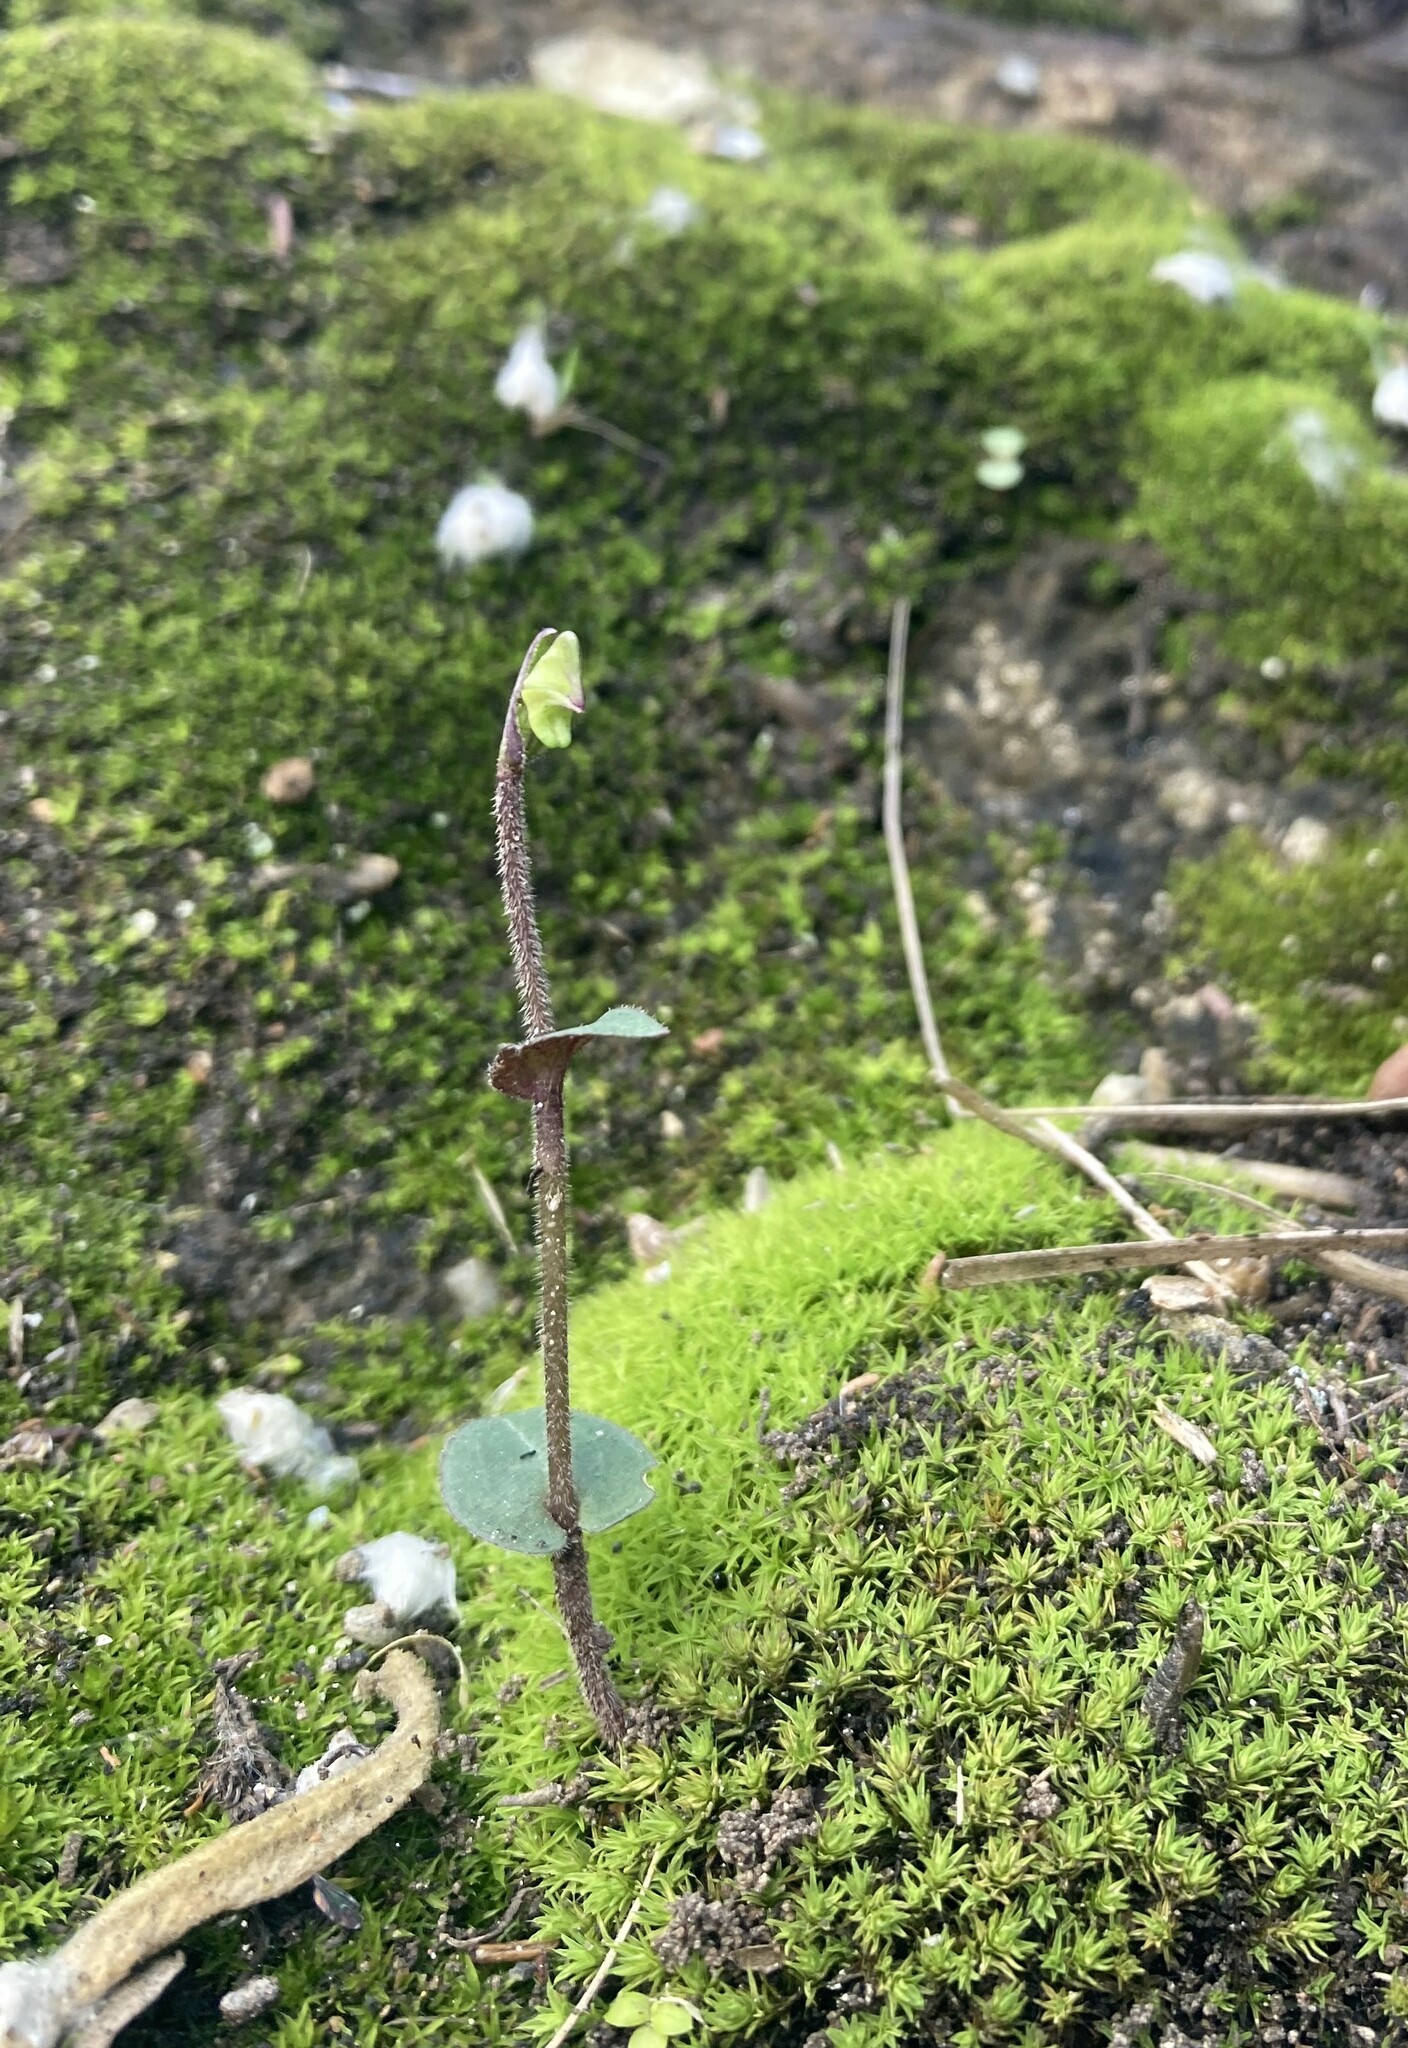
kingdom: Plantae
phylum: Tracheophyta
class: Liliopsida
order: Asparagales
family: Orchidaceae
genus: Disperis
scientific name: Disperis macowanii
